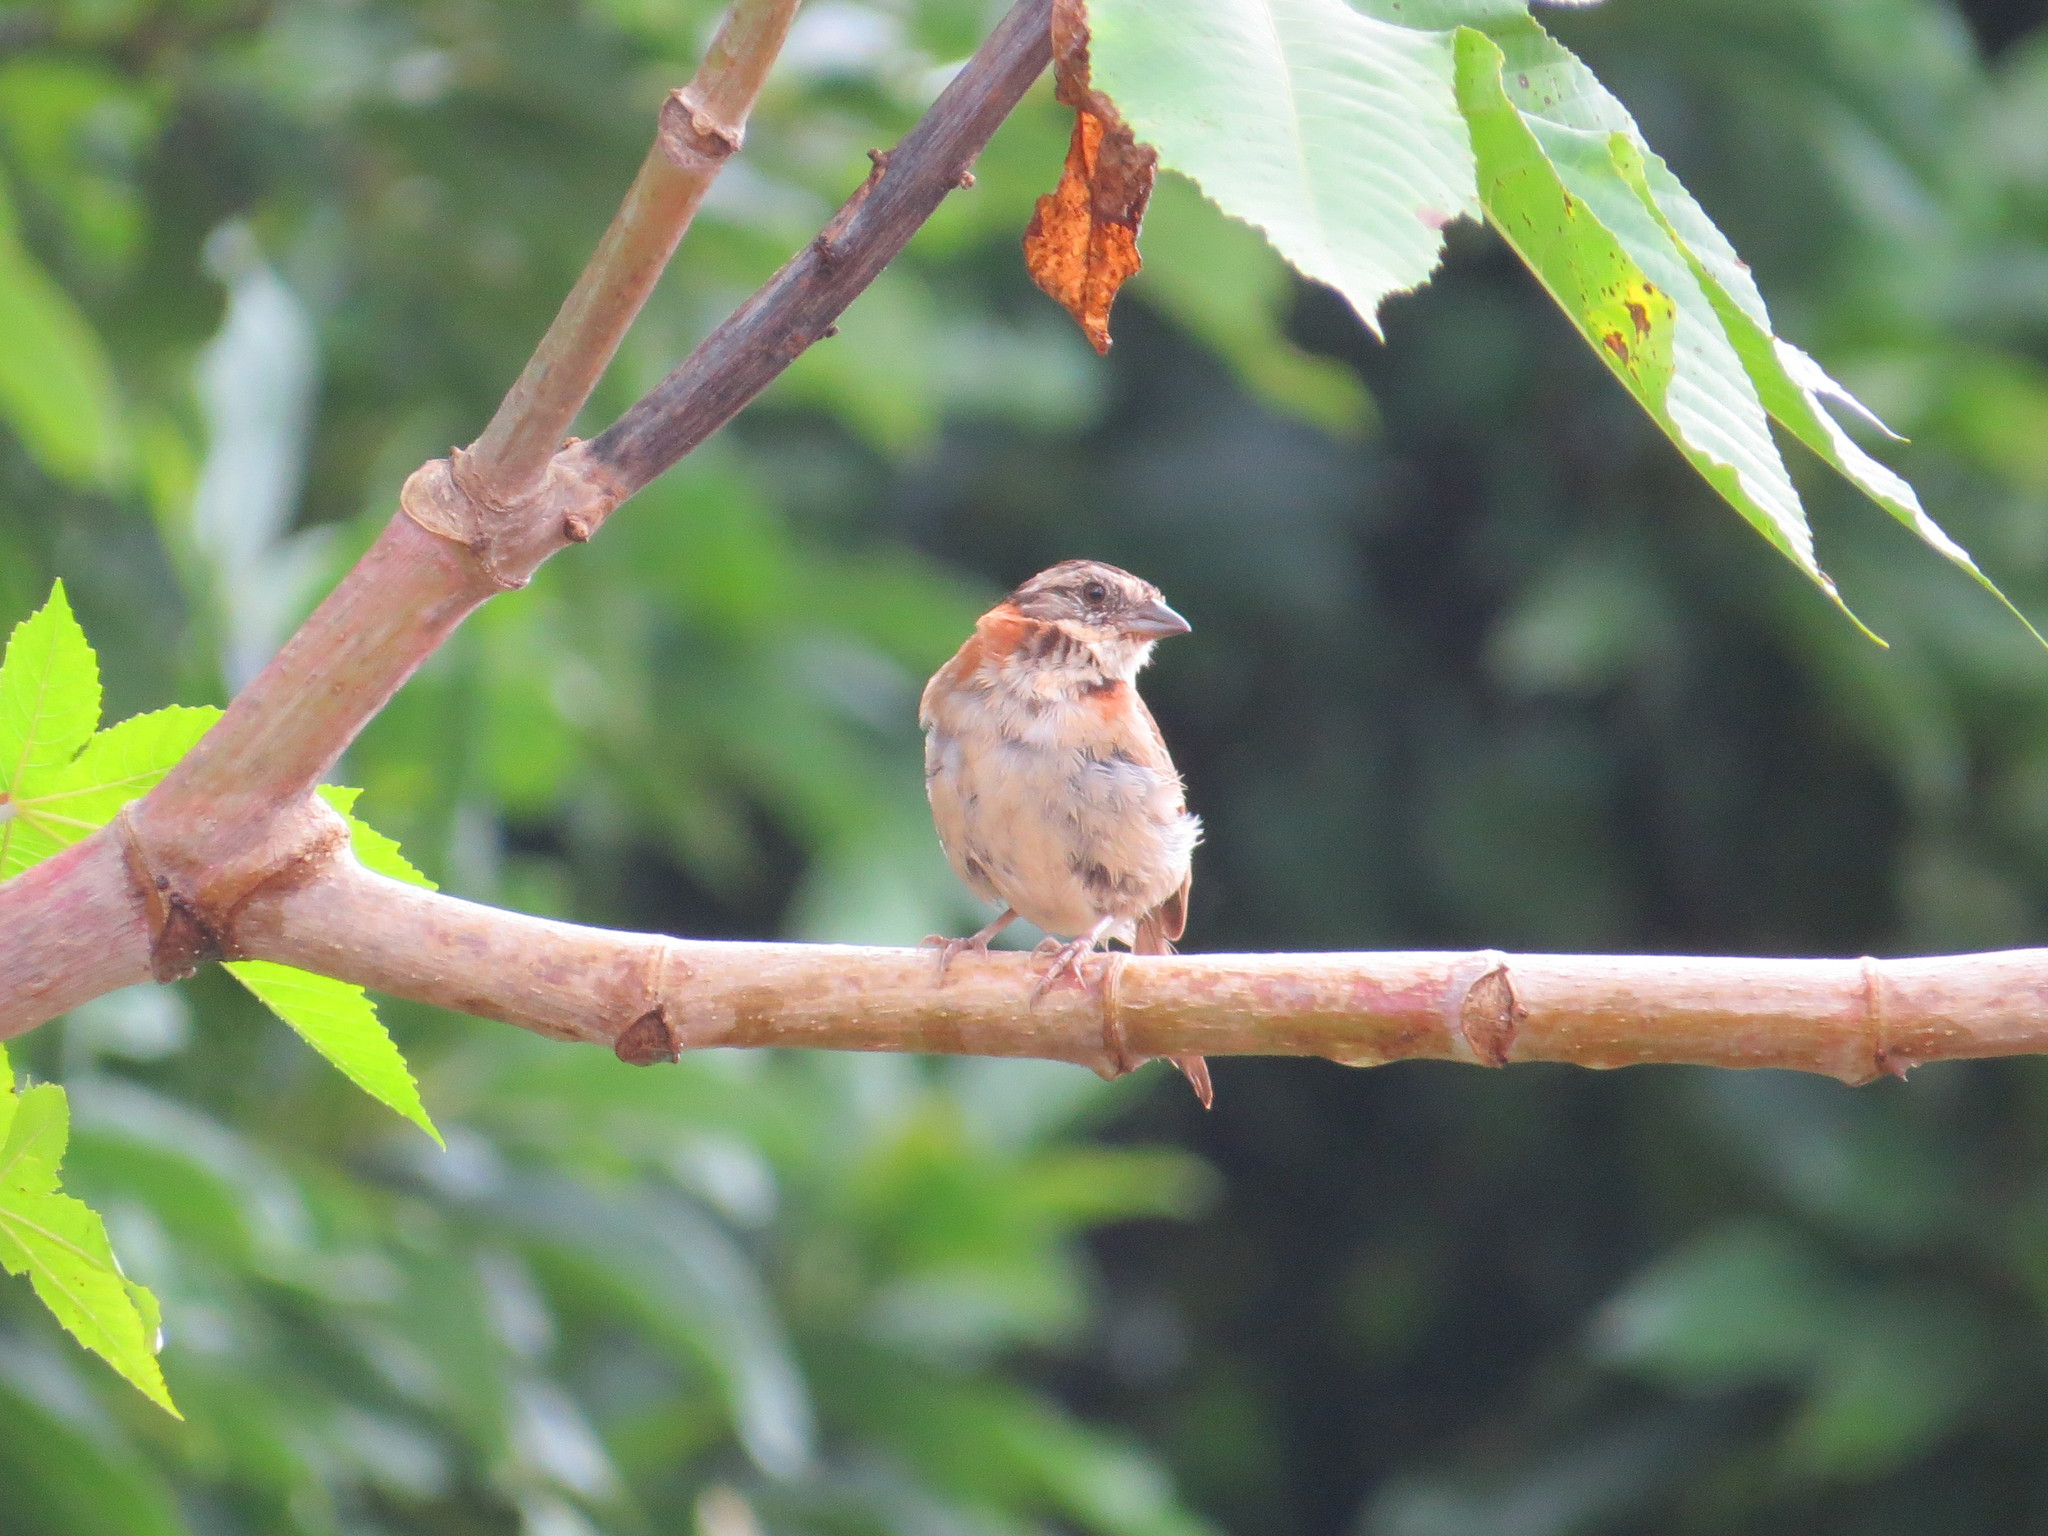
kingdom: Animalia
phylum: Chordata
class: Aves
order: Passeriformes
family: Passerellidae
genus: Zonotrichia
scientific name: Zonotrichia capensis
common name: Rufous-collared sparrow
